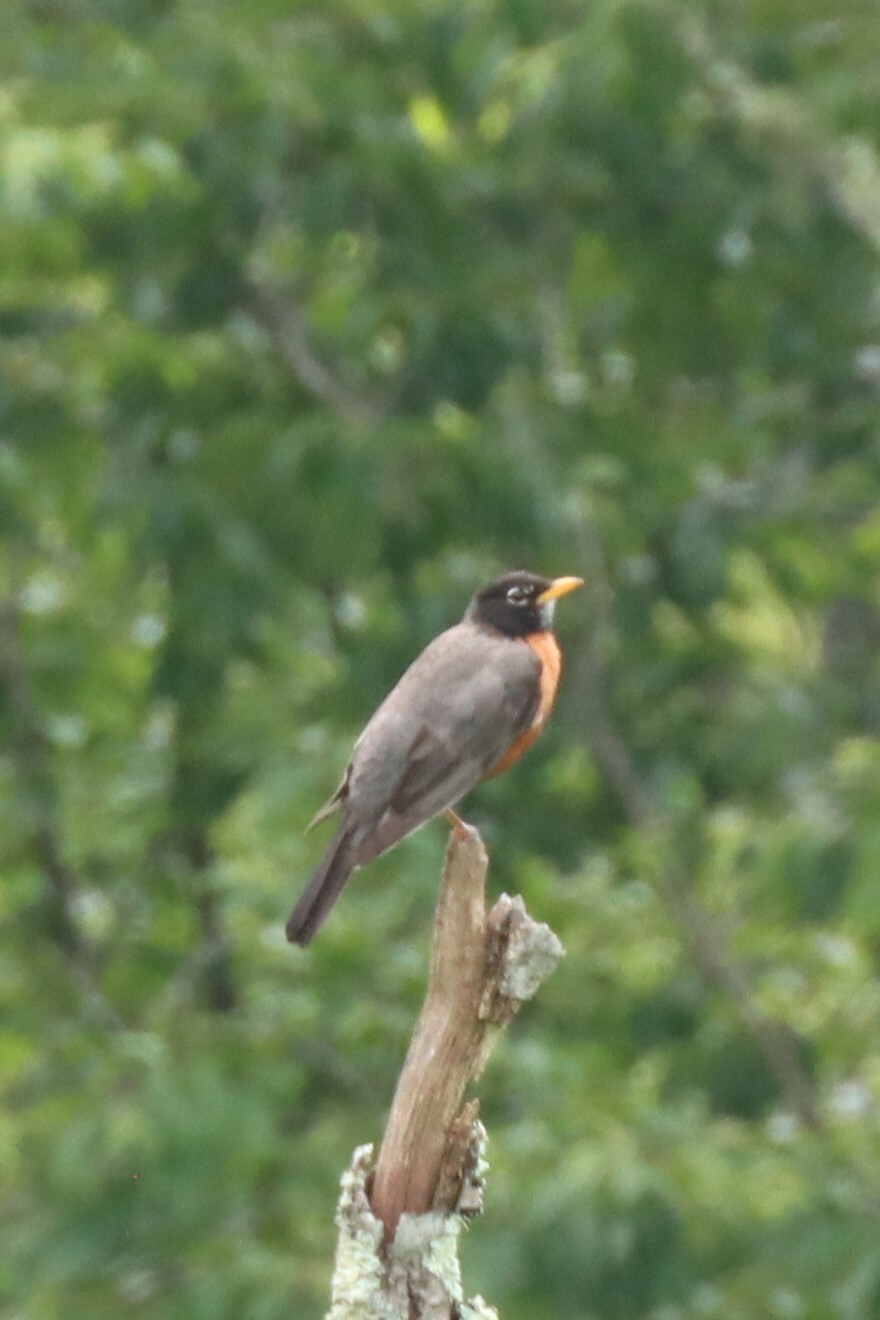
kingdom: Animalia
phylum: Chordata
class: Aves
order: Passeriformes
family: Turdidae
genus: Turdus
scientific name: Turdus migratorius
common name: American robin
